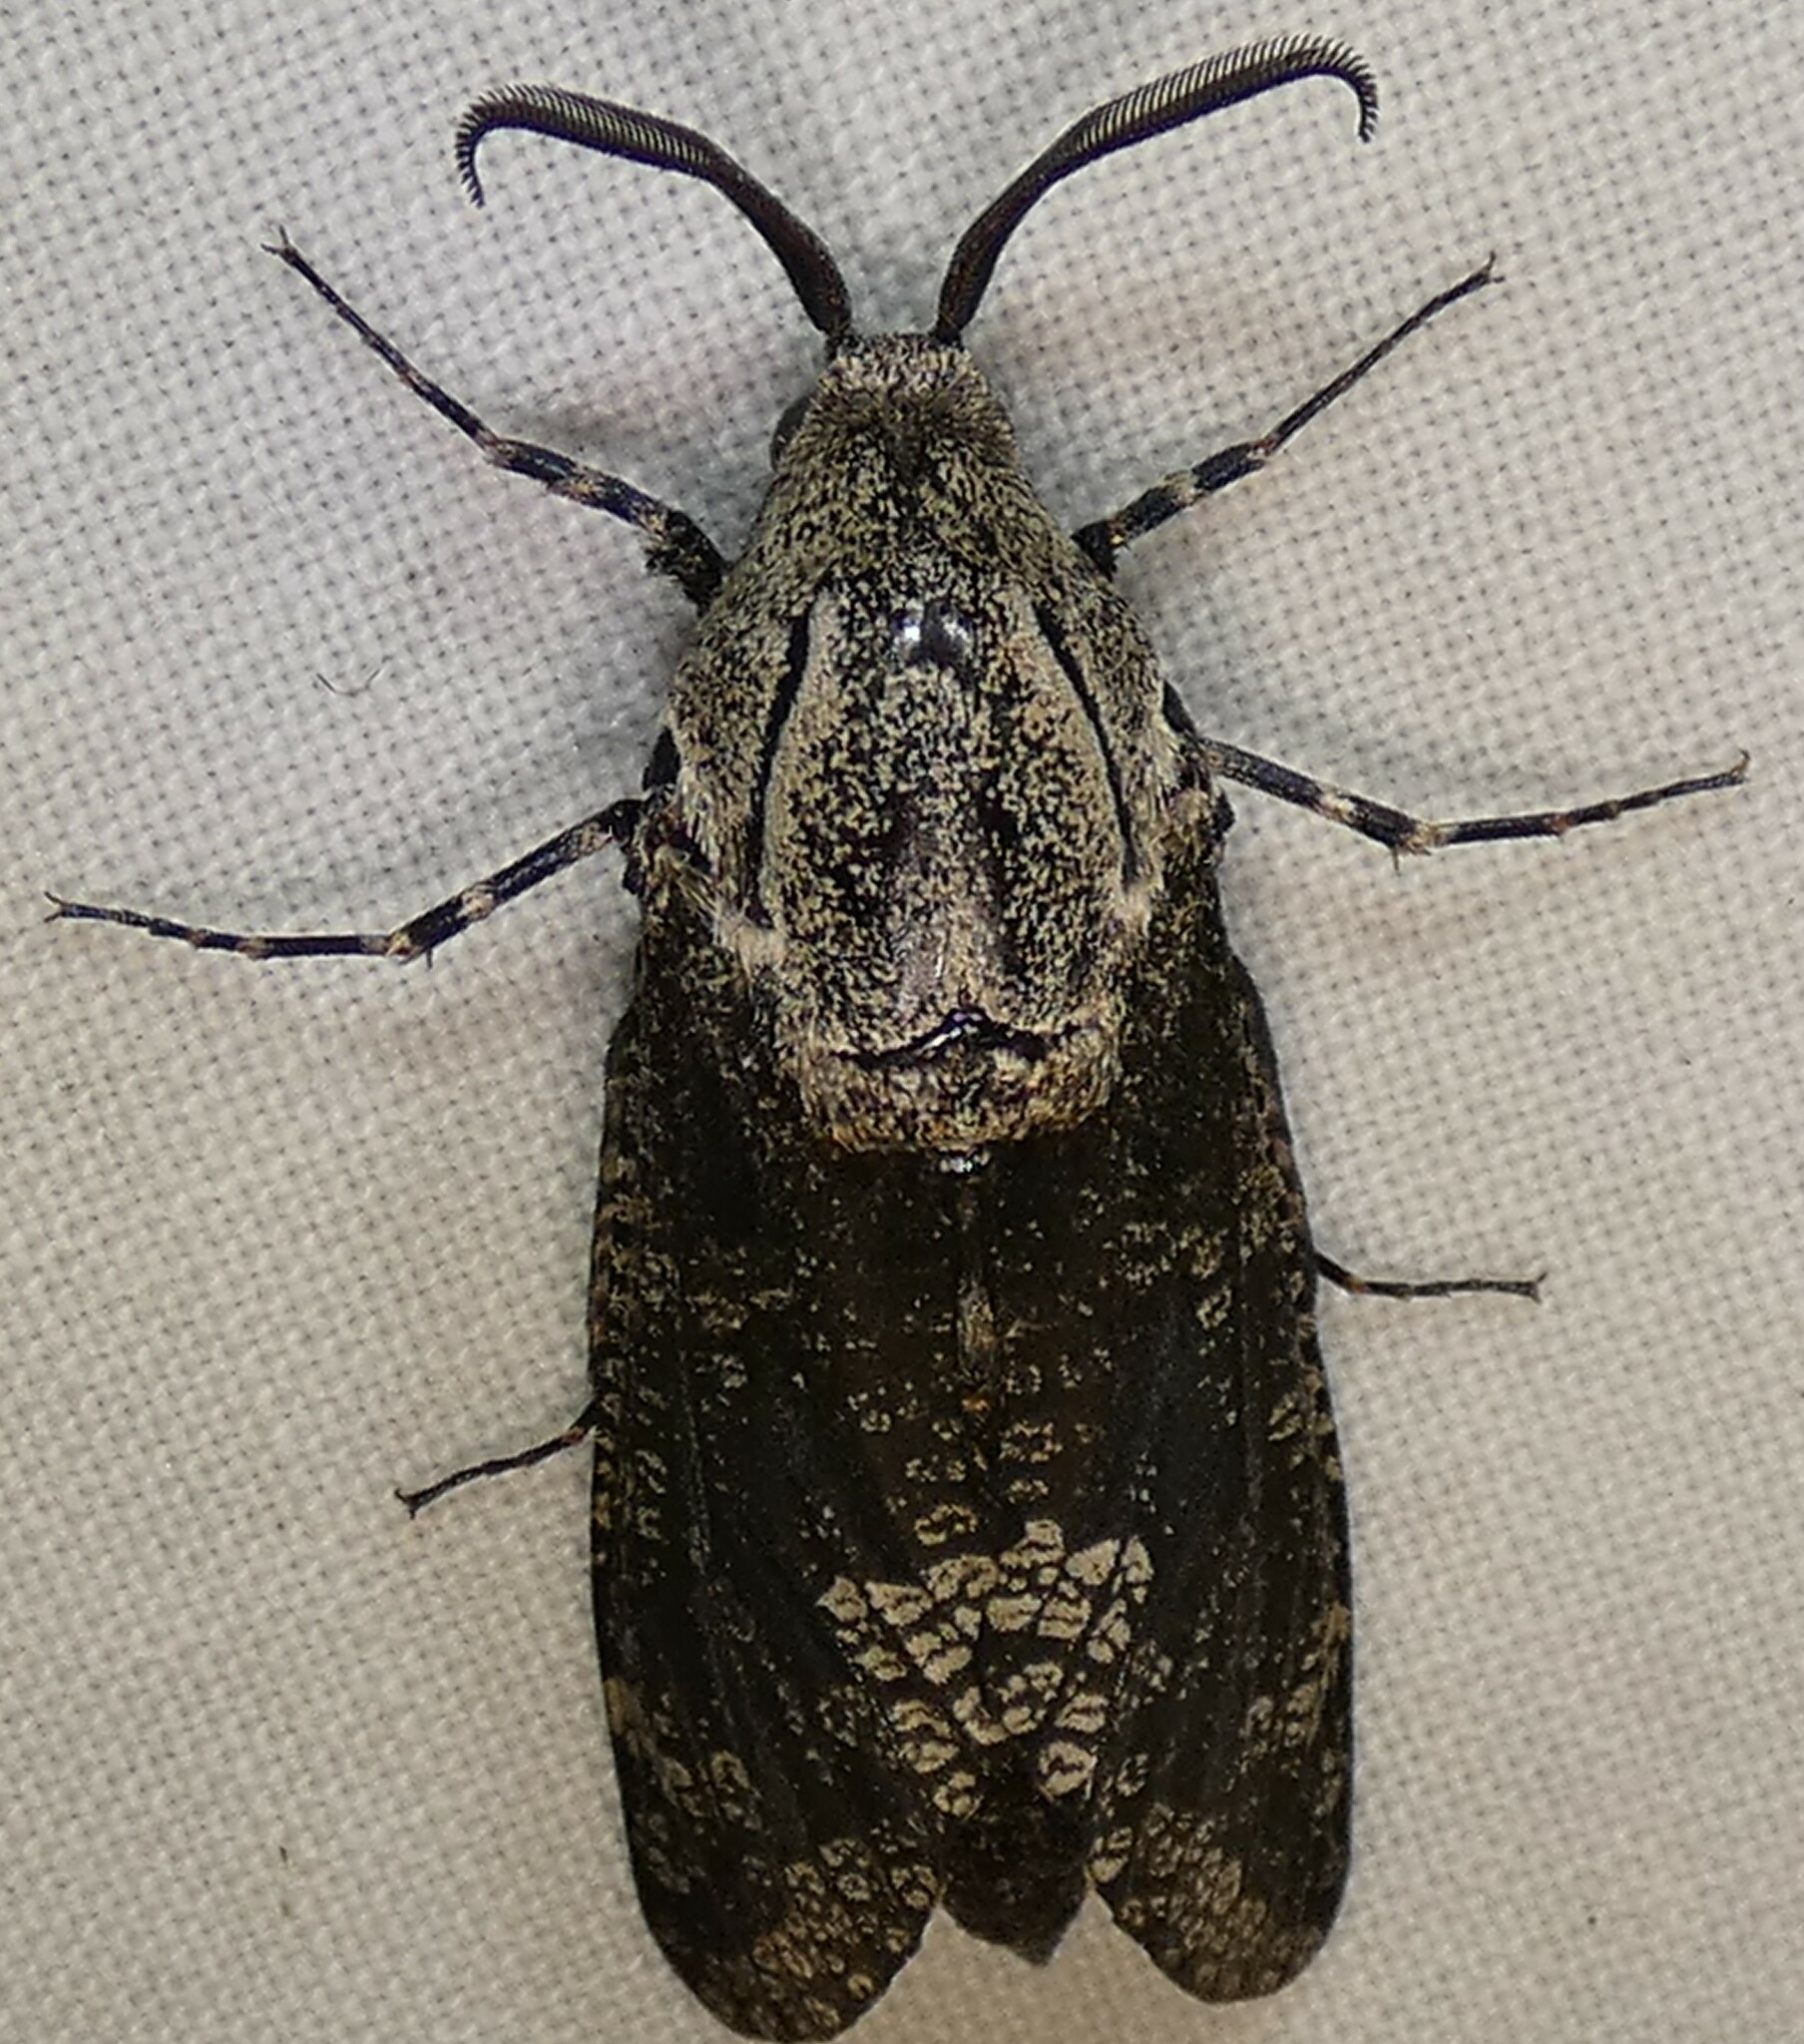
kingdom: Animalia
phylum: Arthropoda
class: Insecta
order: Lepidoptera
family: Cossidae
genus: Prionoxystus
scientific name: Prionoxystus robiniae
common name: Carpenterworm
